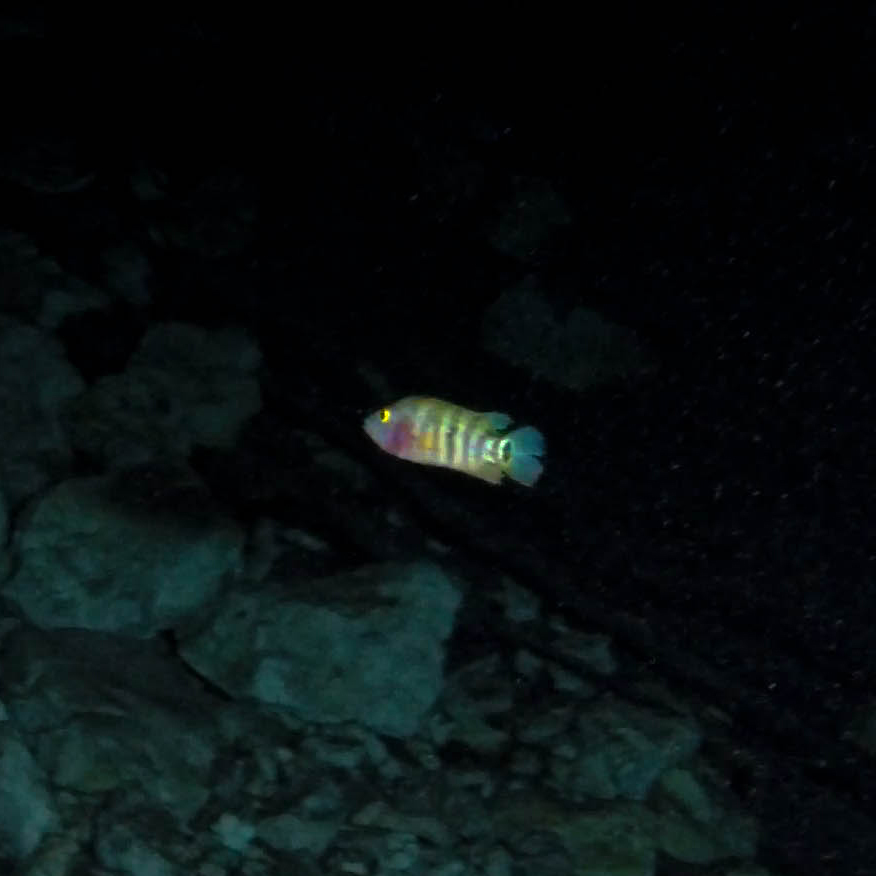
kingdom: Animalia
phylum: Chordata
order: Perciformes
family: Cichlidae
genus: Mayaheros
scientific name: Mayaheros urophthalmus
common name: Mayan cichlid
